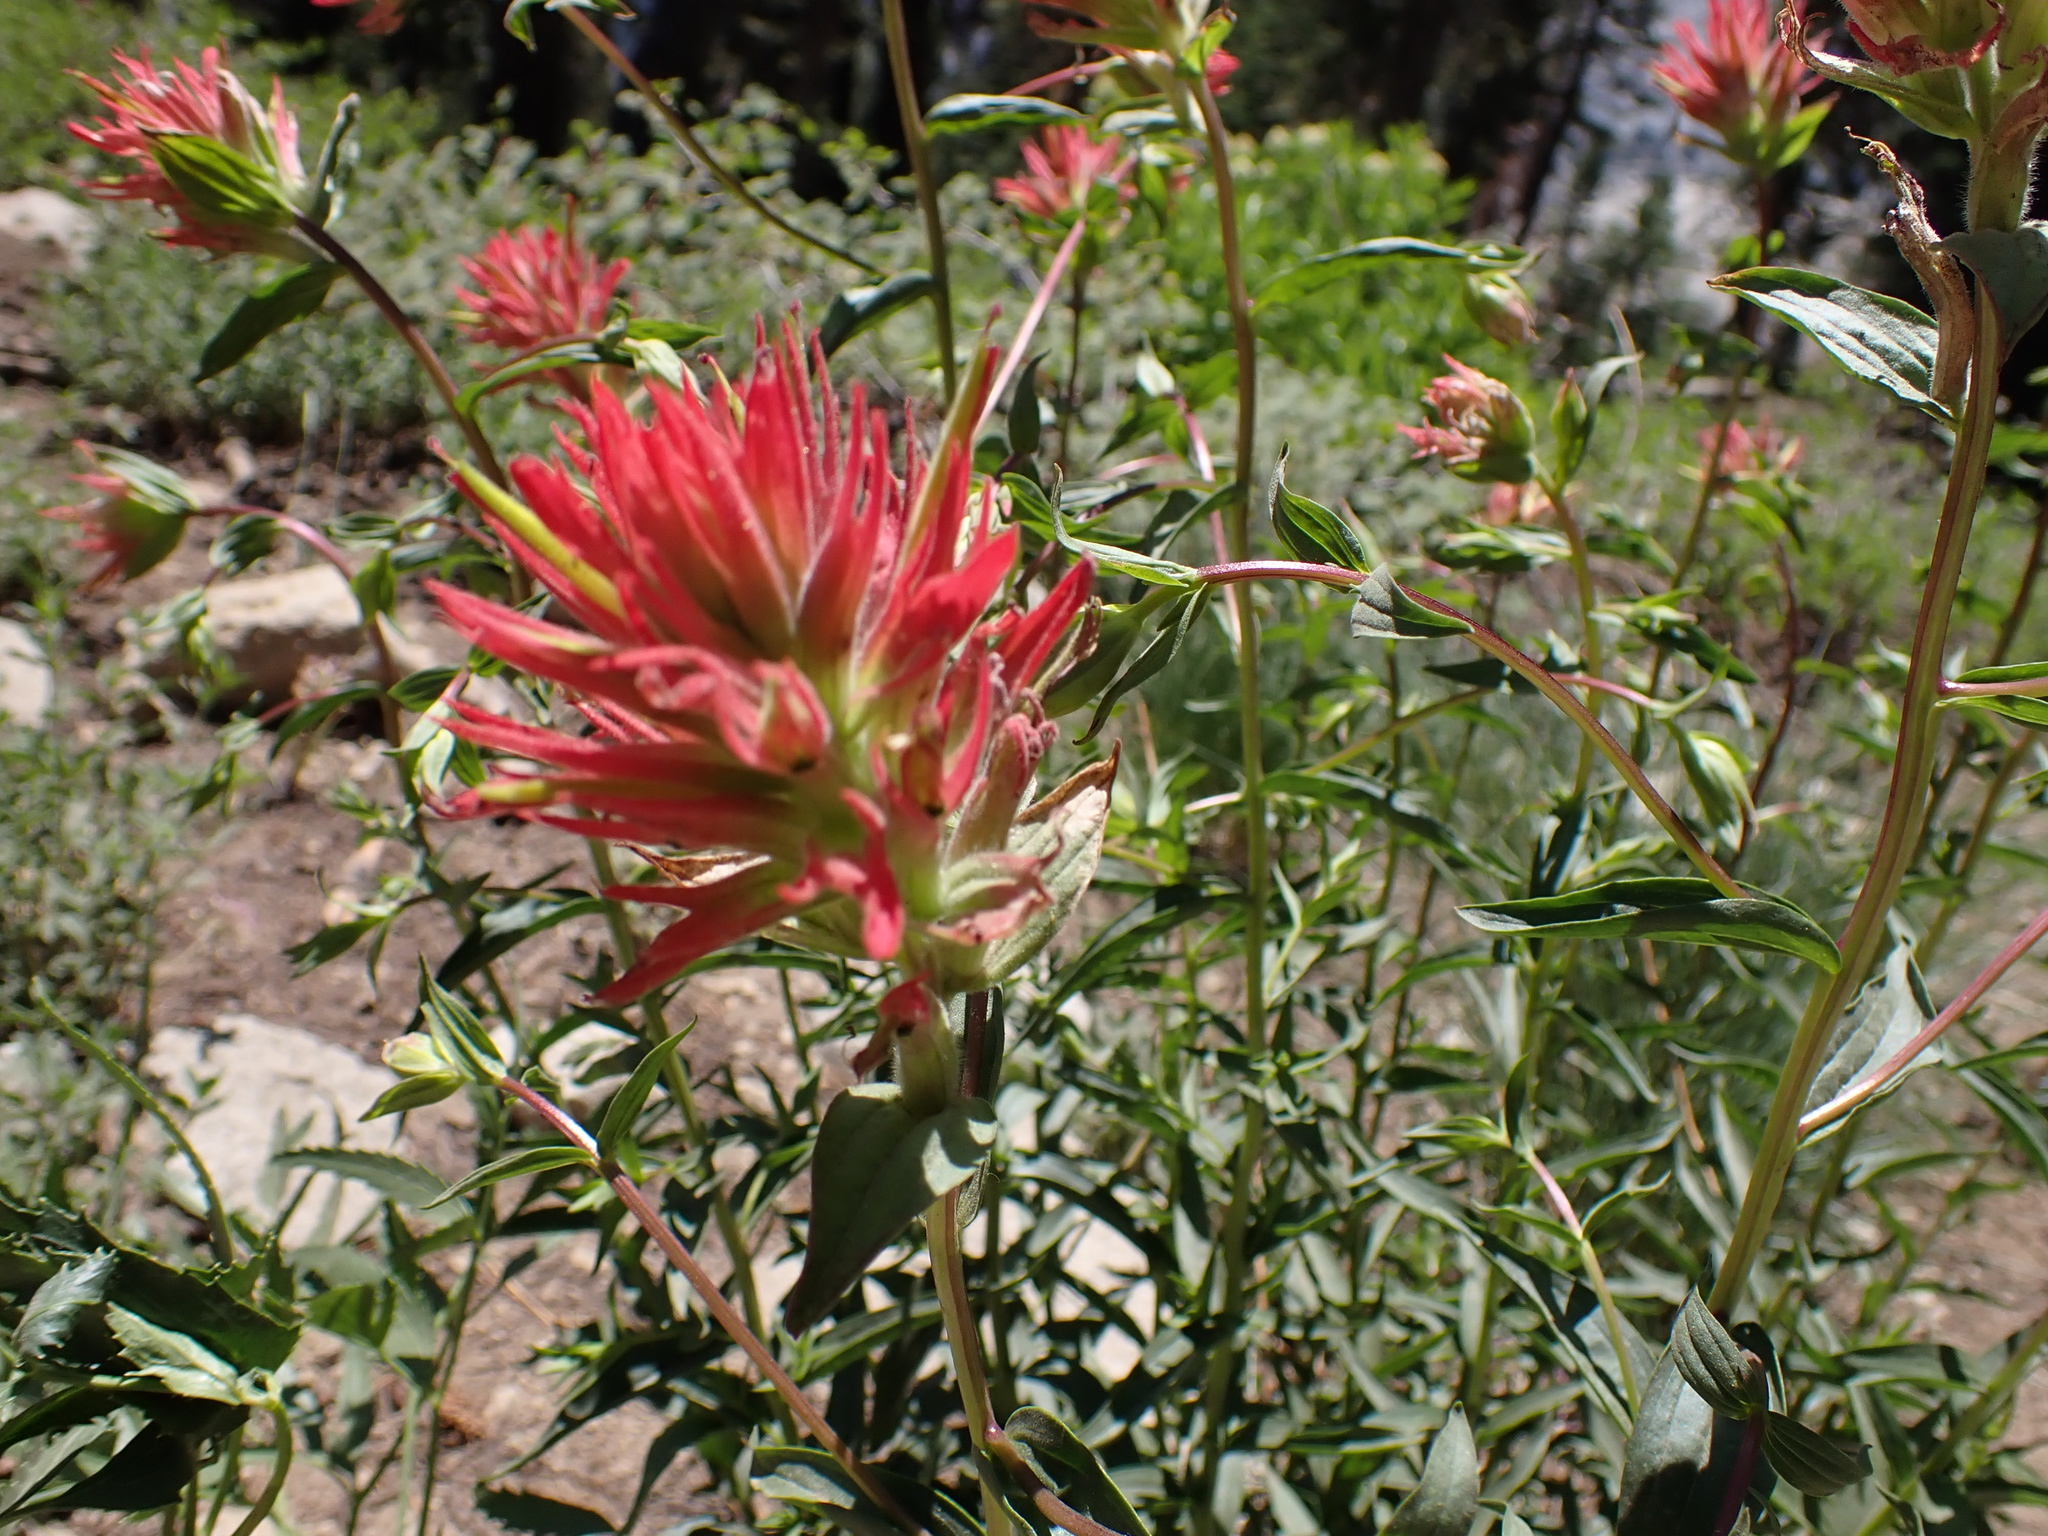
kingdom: Plantae
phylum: Tracheophyta
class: Magnoliopsida
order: Lamiales
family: Orobanchaceae
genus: Castilleja
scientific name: Castilleja miniata
